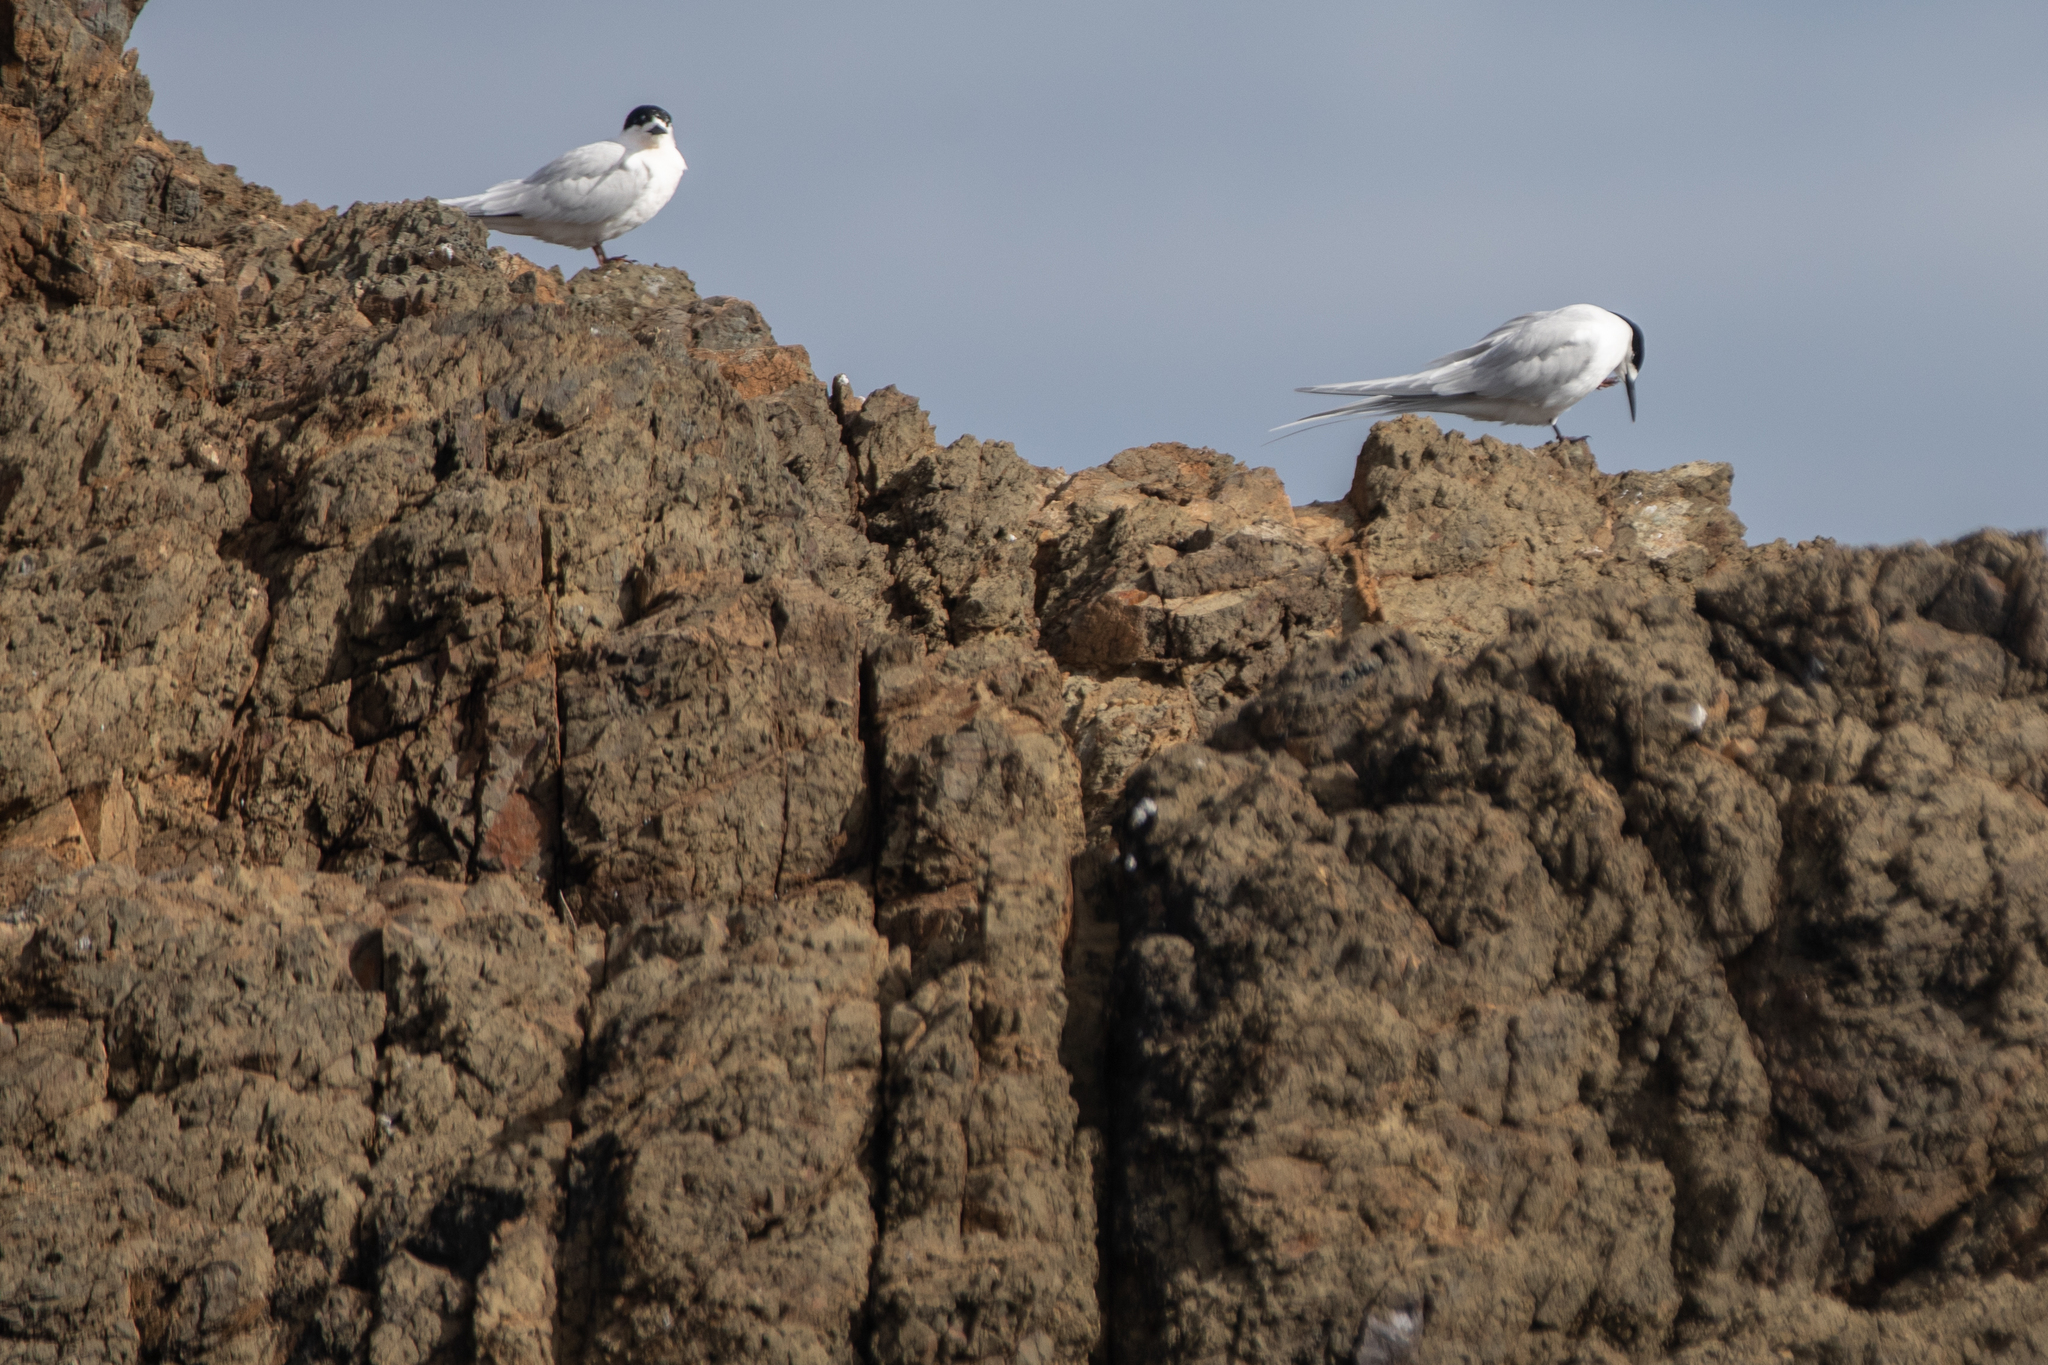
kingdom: Animalia
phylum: Chordata
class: Aves
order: Charadriiformes
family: Laridae
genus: Sterna
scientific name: Sterna striata
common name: White-fronted tern
